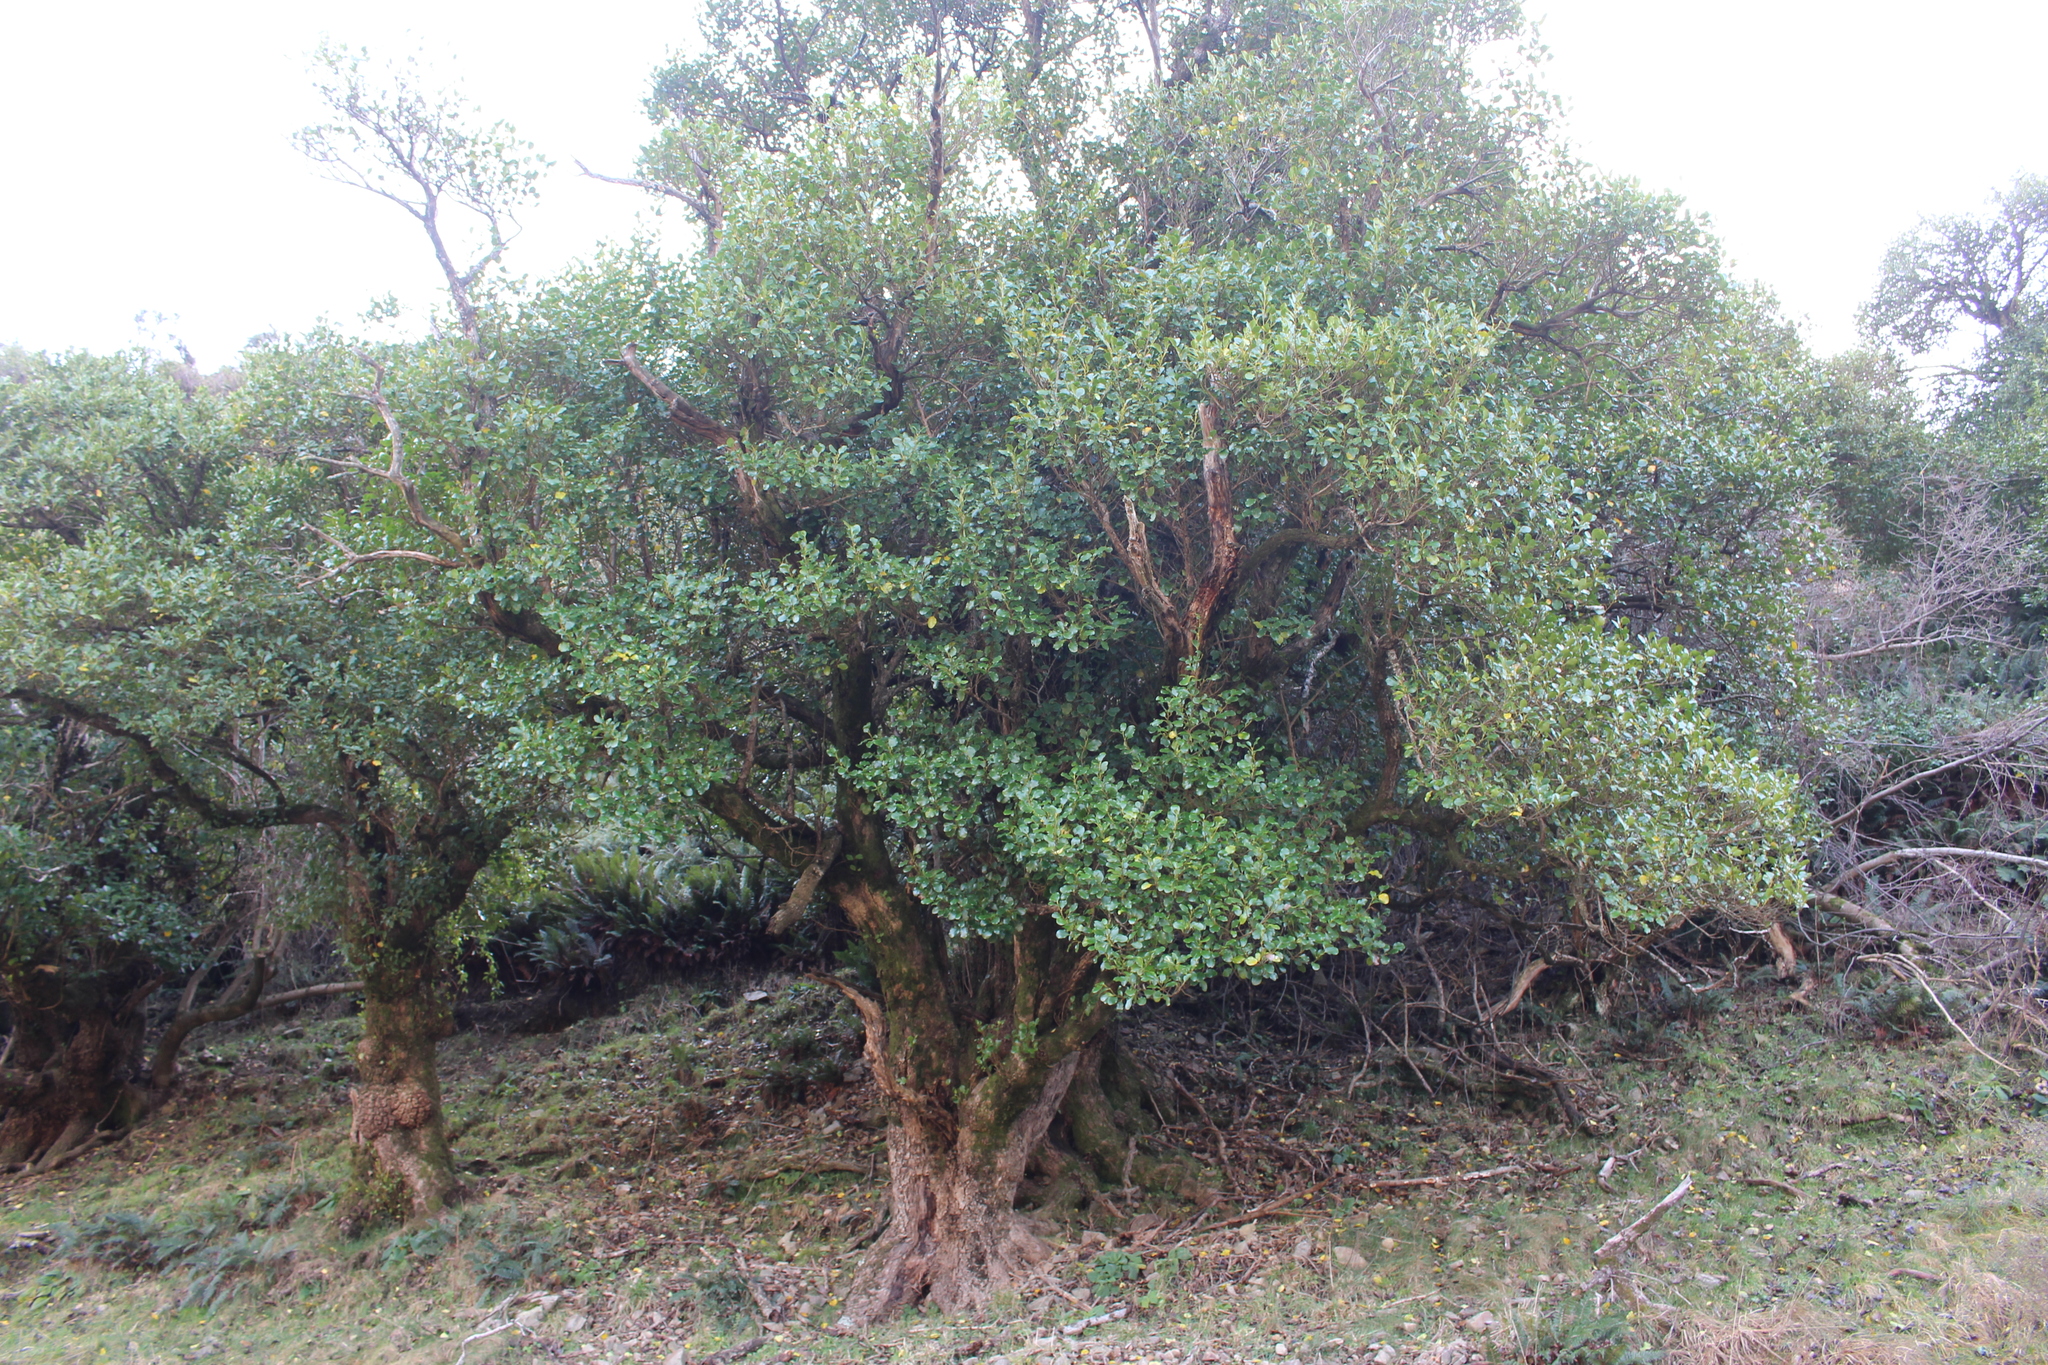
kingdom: Plantae
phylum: Tracheophyta
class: Magnoliopsida
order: Apiales
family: Griseliniaceae
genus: Griselinia
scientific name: Griselinia littoralis
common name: New zealand broadleaf
